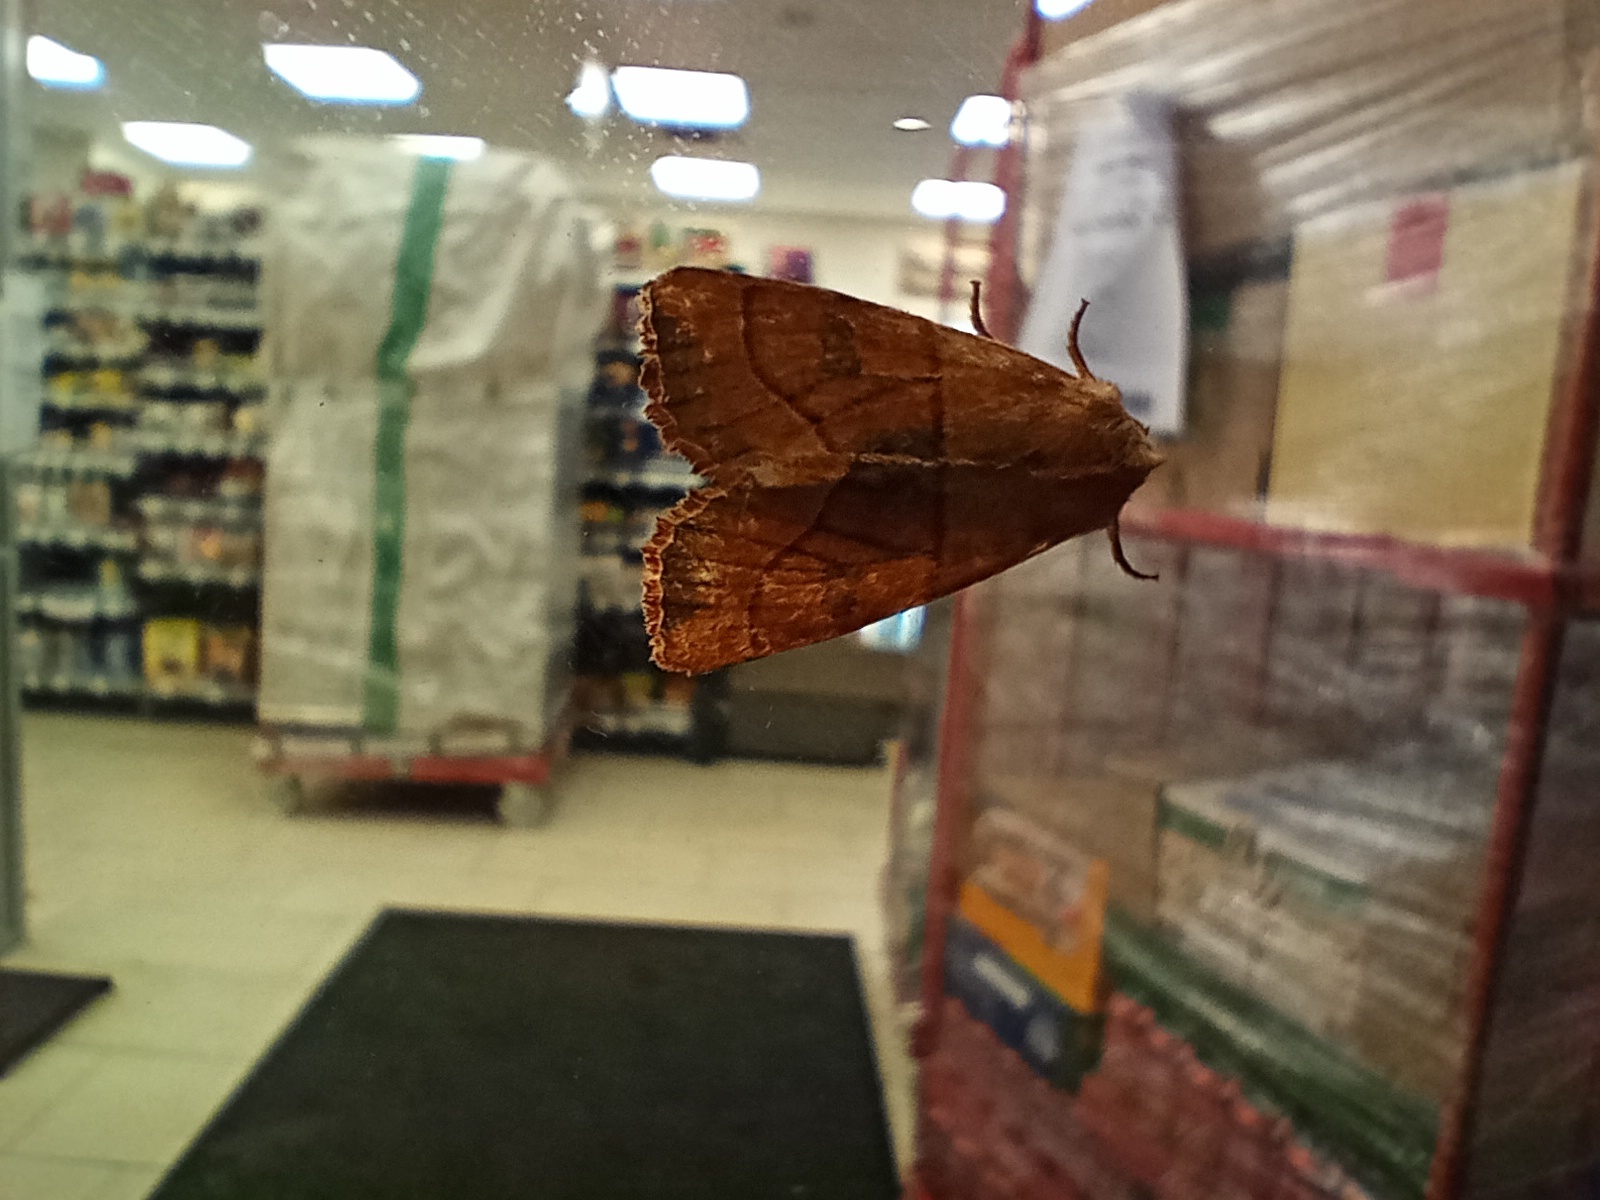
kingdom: Animalia
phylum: Arthropoda
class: Insecta
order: Lepidoptera
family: Noctuidae
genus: Atethmia
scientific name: Atethmia centrago
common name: Centre-barred sallow
